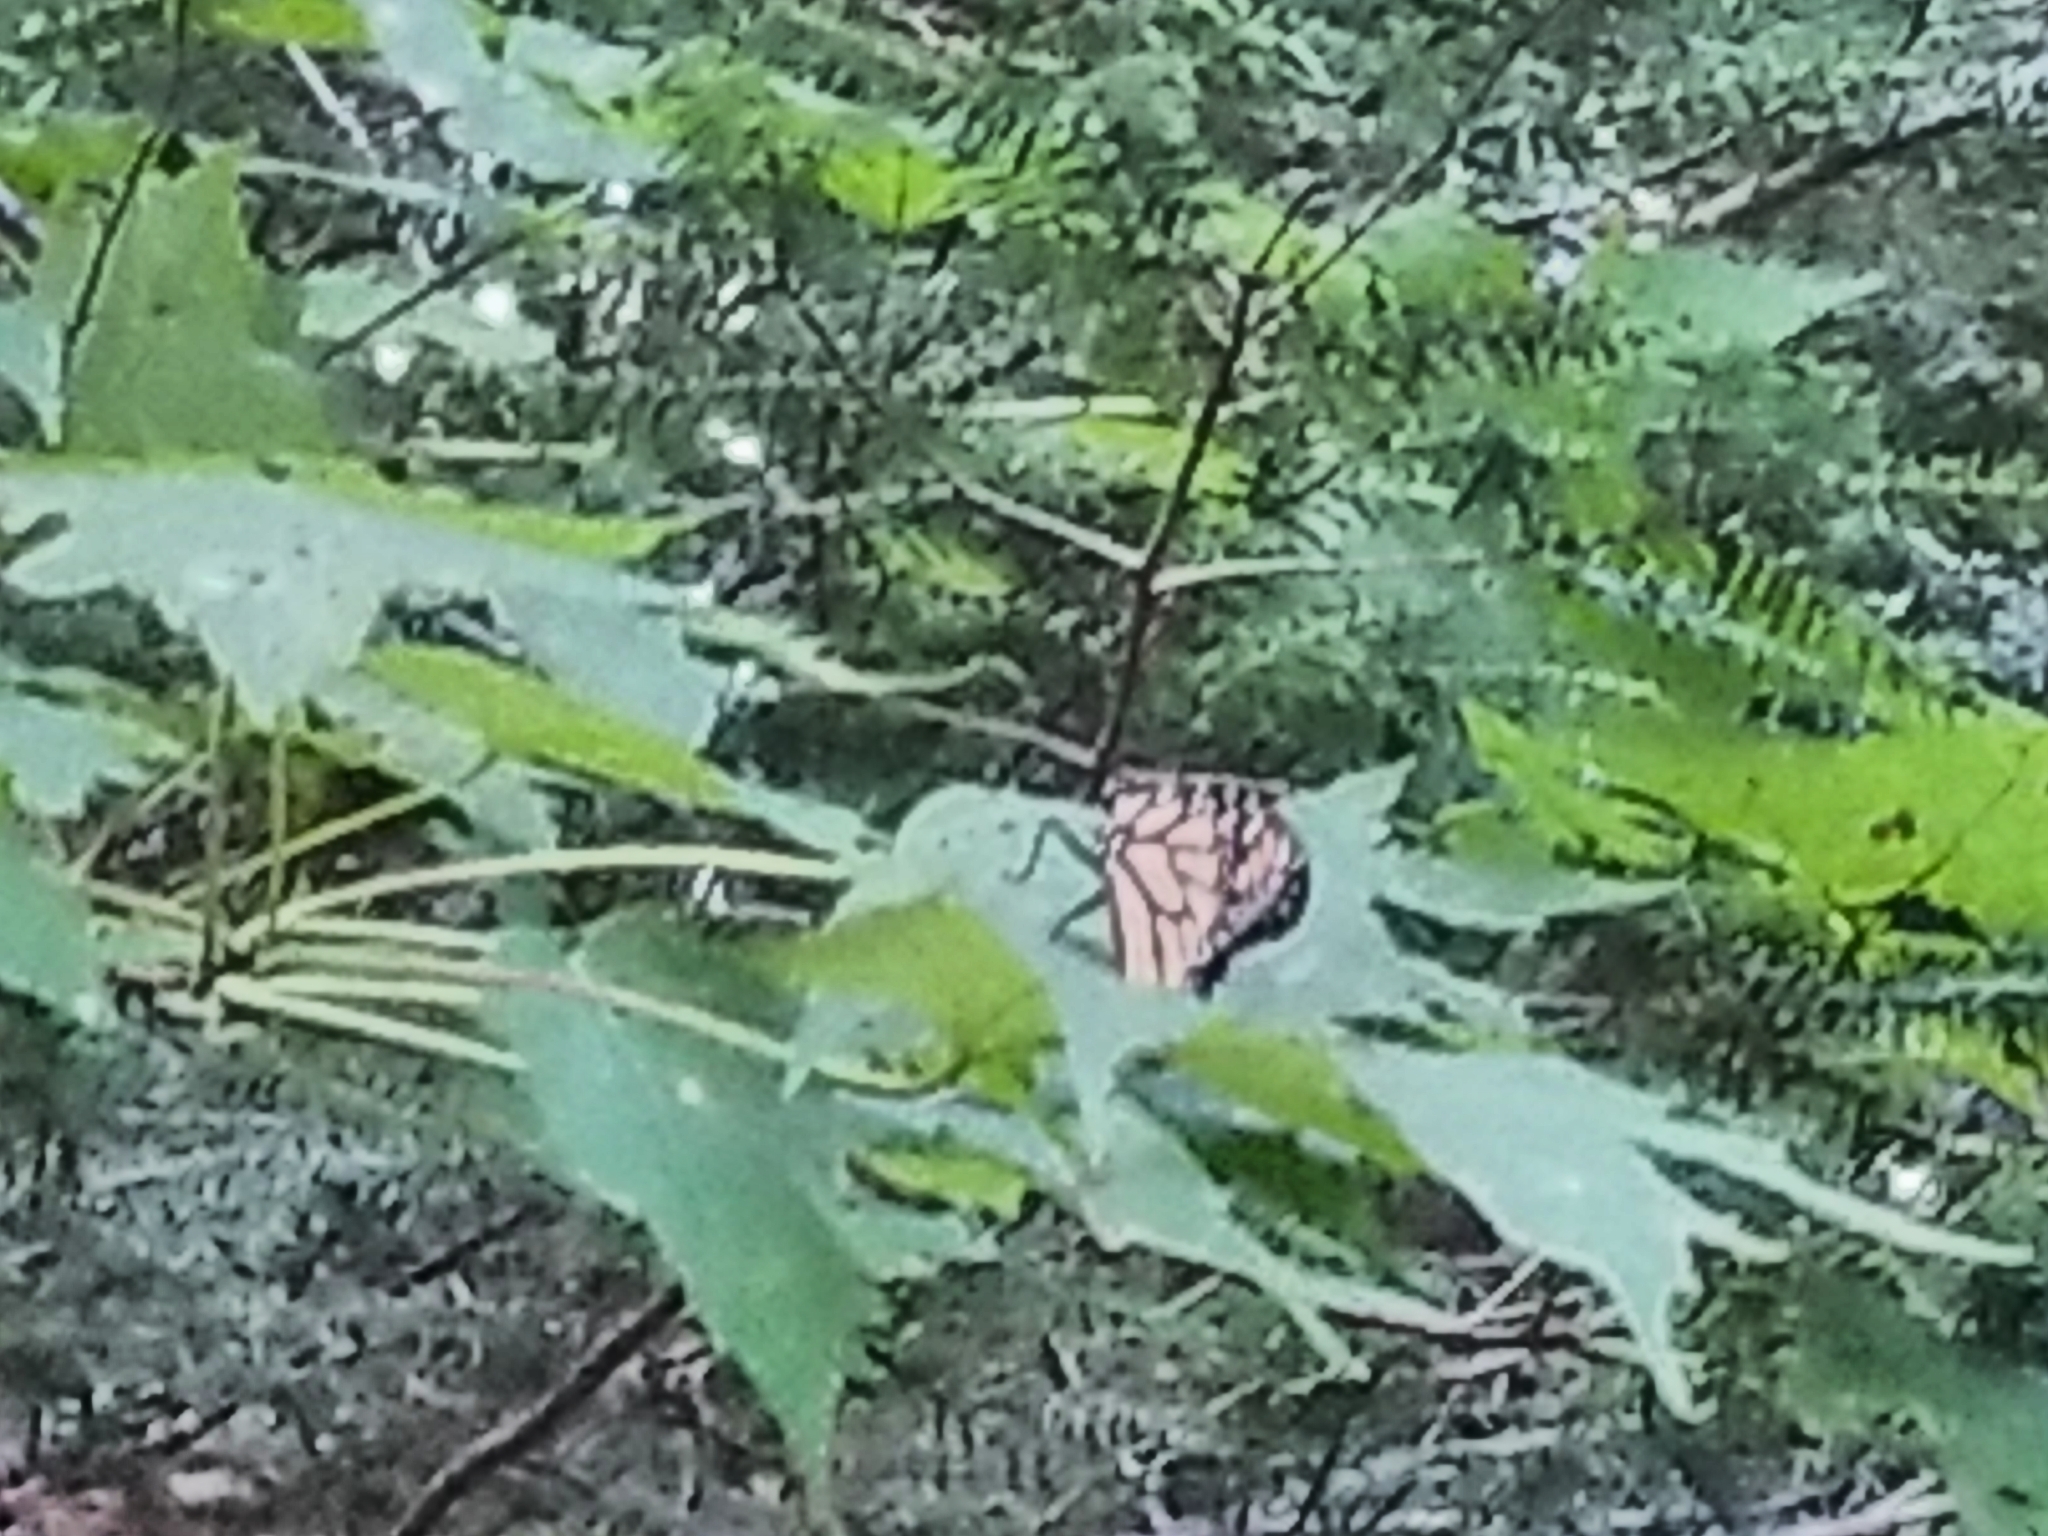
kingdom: Animalia
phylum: Arthropoda
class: Insecta
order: Lepidoptera
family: Nymphalidae
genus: Danaus
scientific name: Danaus plexippus
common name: Monarch
